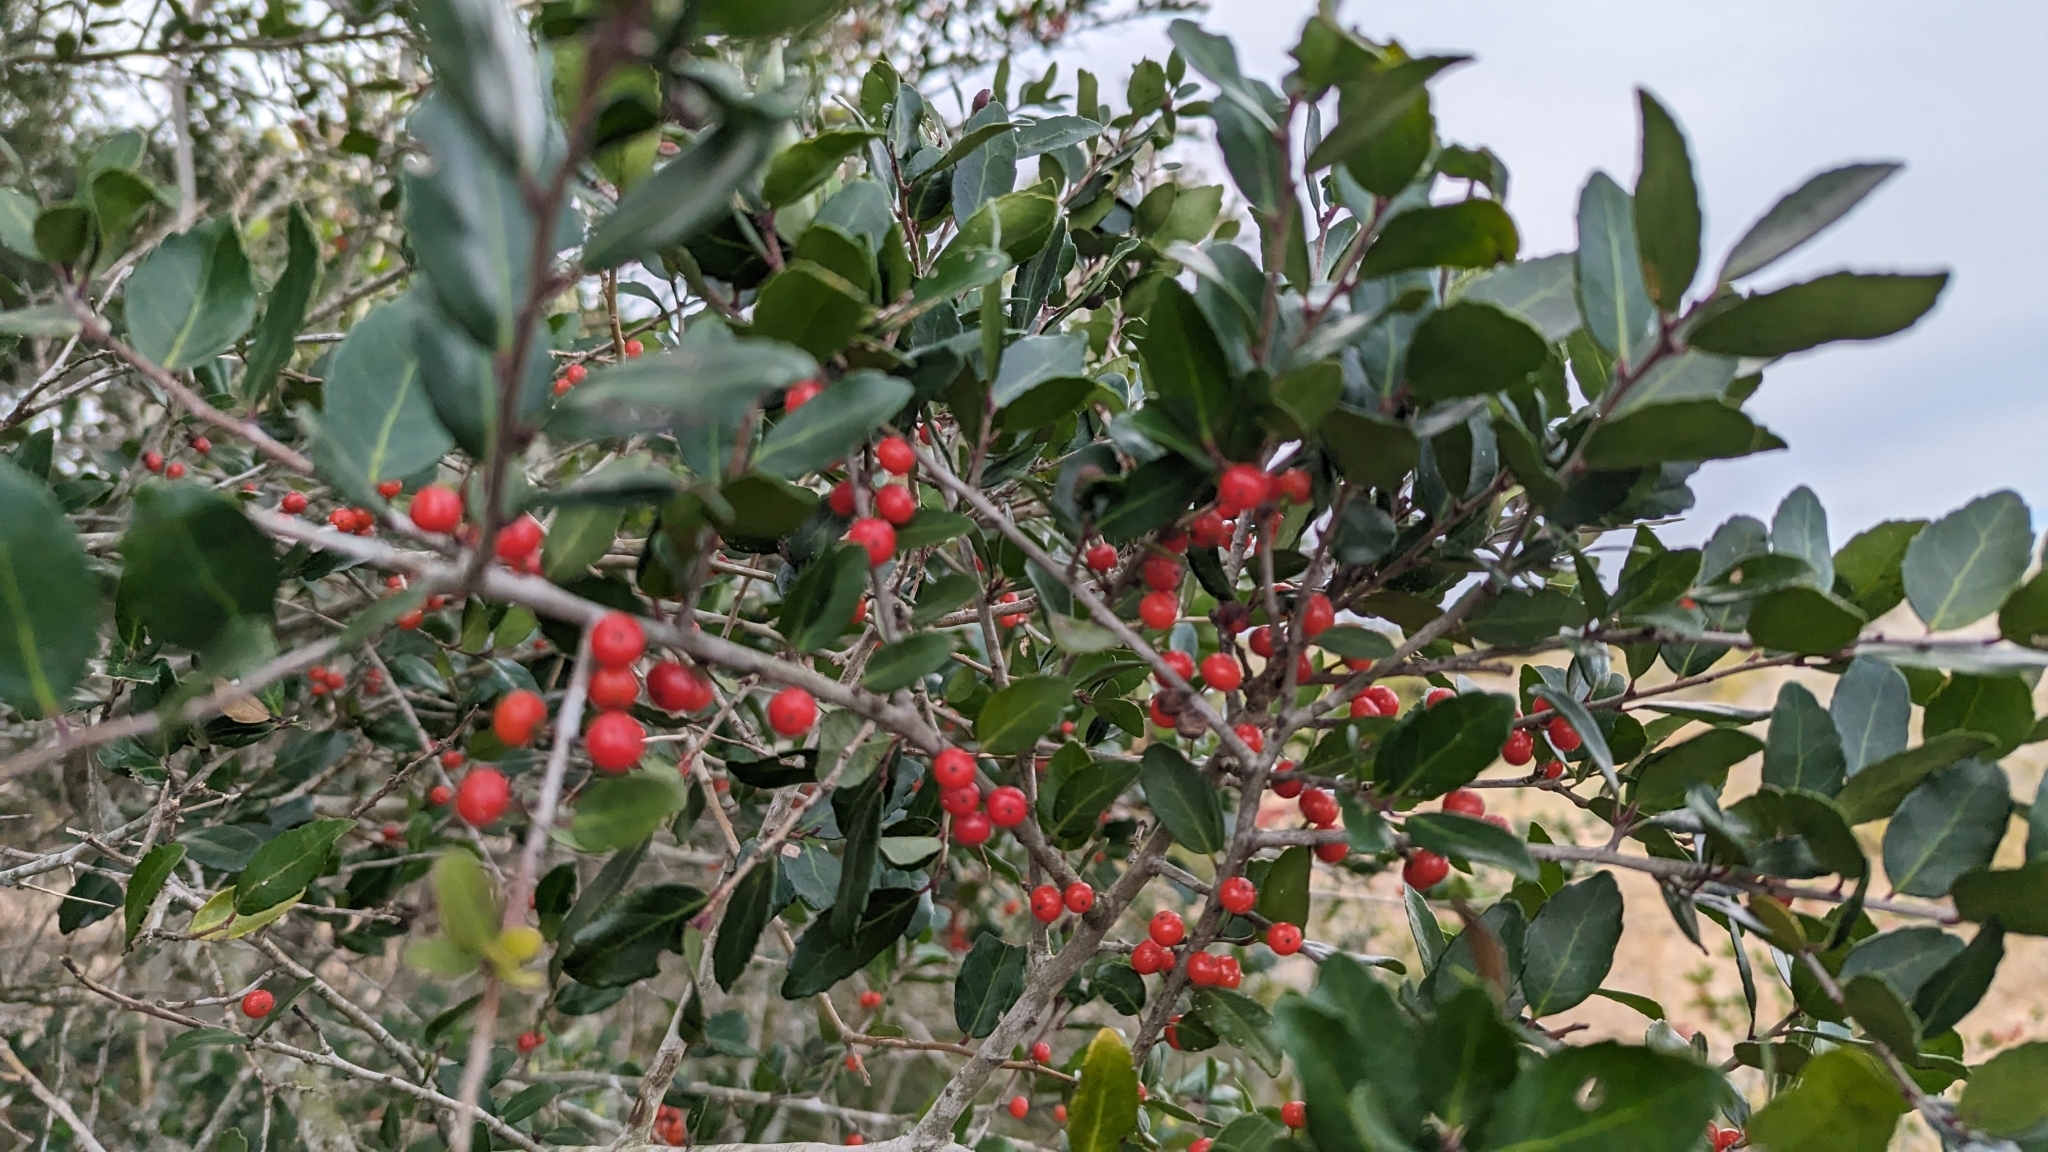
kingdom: Plantae
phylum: Tracheophyta
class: Magnoliopsida
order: Aquifoliales
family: Aquifoliaceae
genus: Ilex
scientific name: Ilex vomitoria
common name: Yaupon holly
